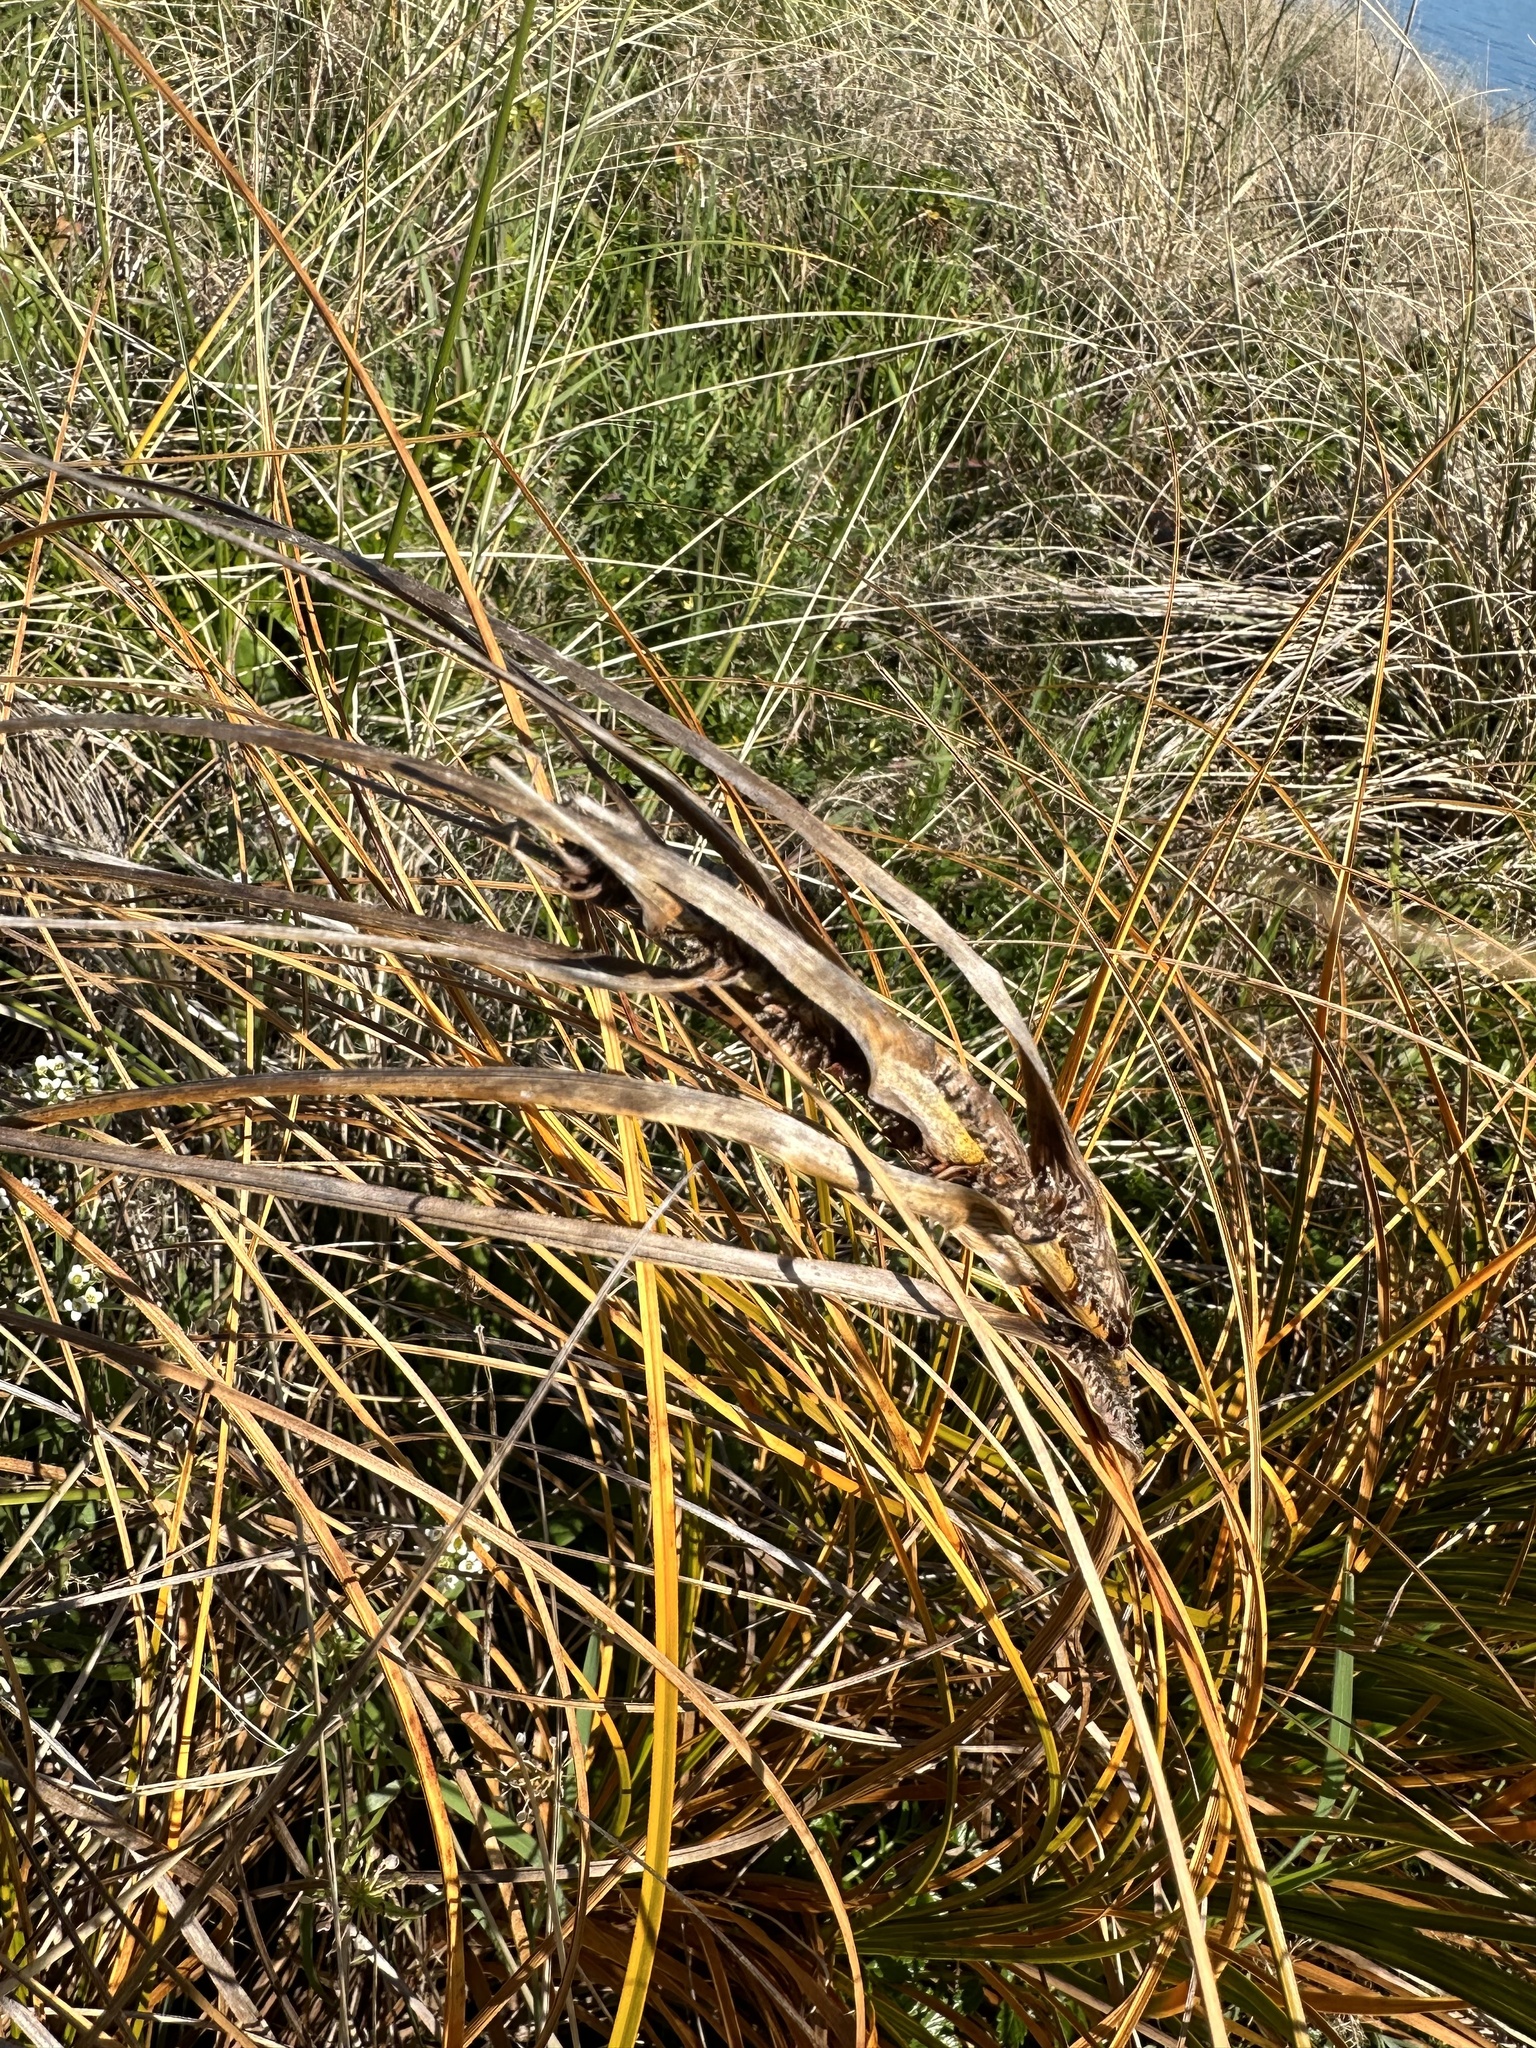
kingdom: Plantae
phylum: Tracheophyta
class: Liliopsida
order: Poales
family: Cyperaceae
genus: Ficinia
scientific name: Ficinia spiralis
